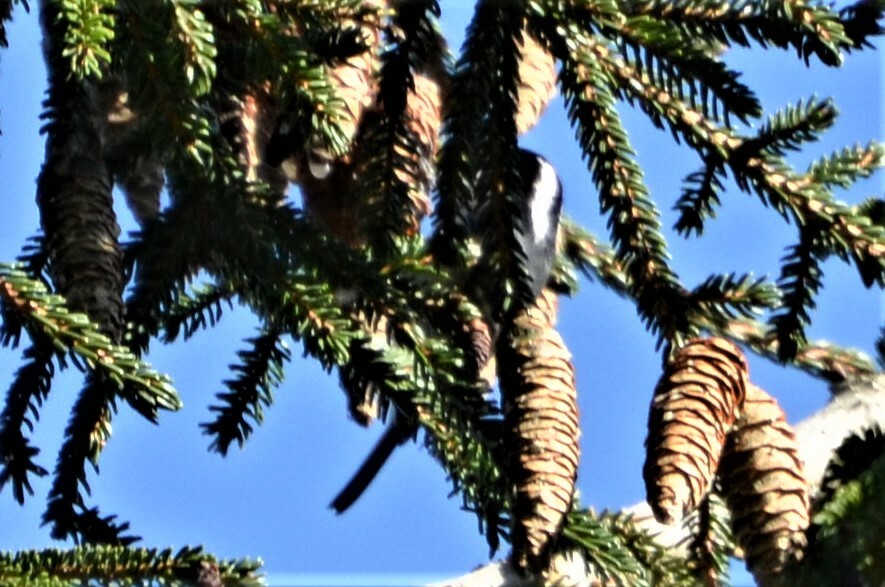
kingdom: Animalia
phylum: Chordata
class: Aves
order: Passeriformes
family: Paridae
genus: Periparus
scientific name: Periparus ater
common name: Coal tit
